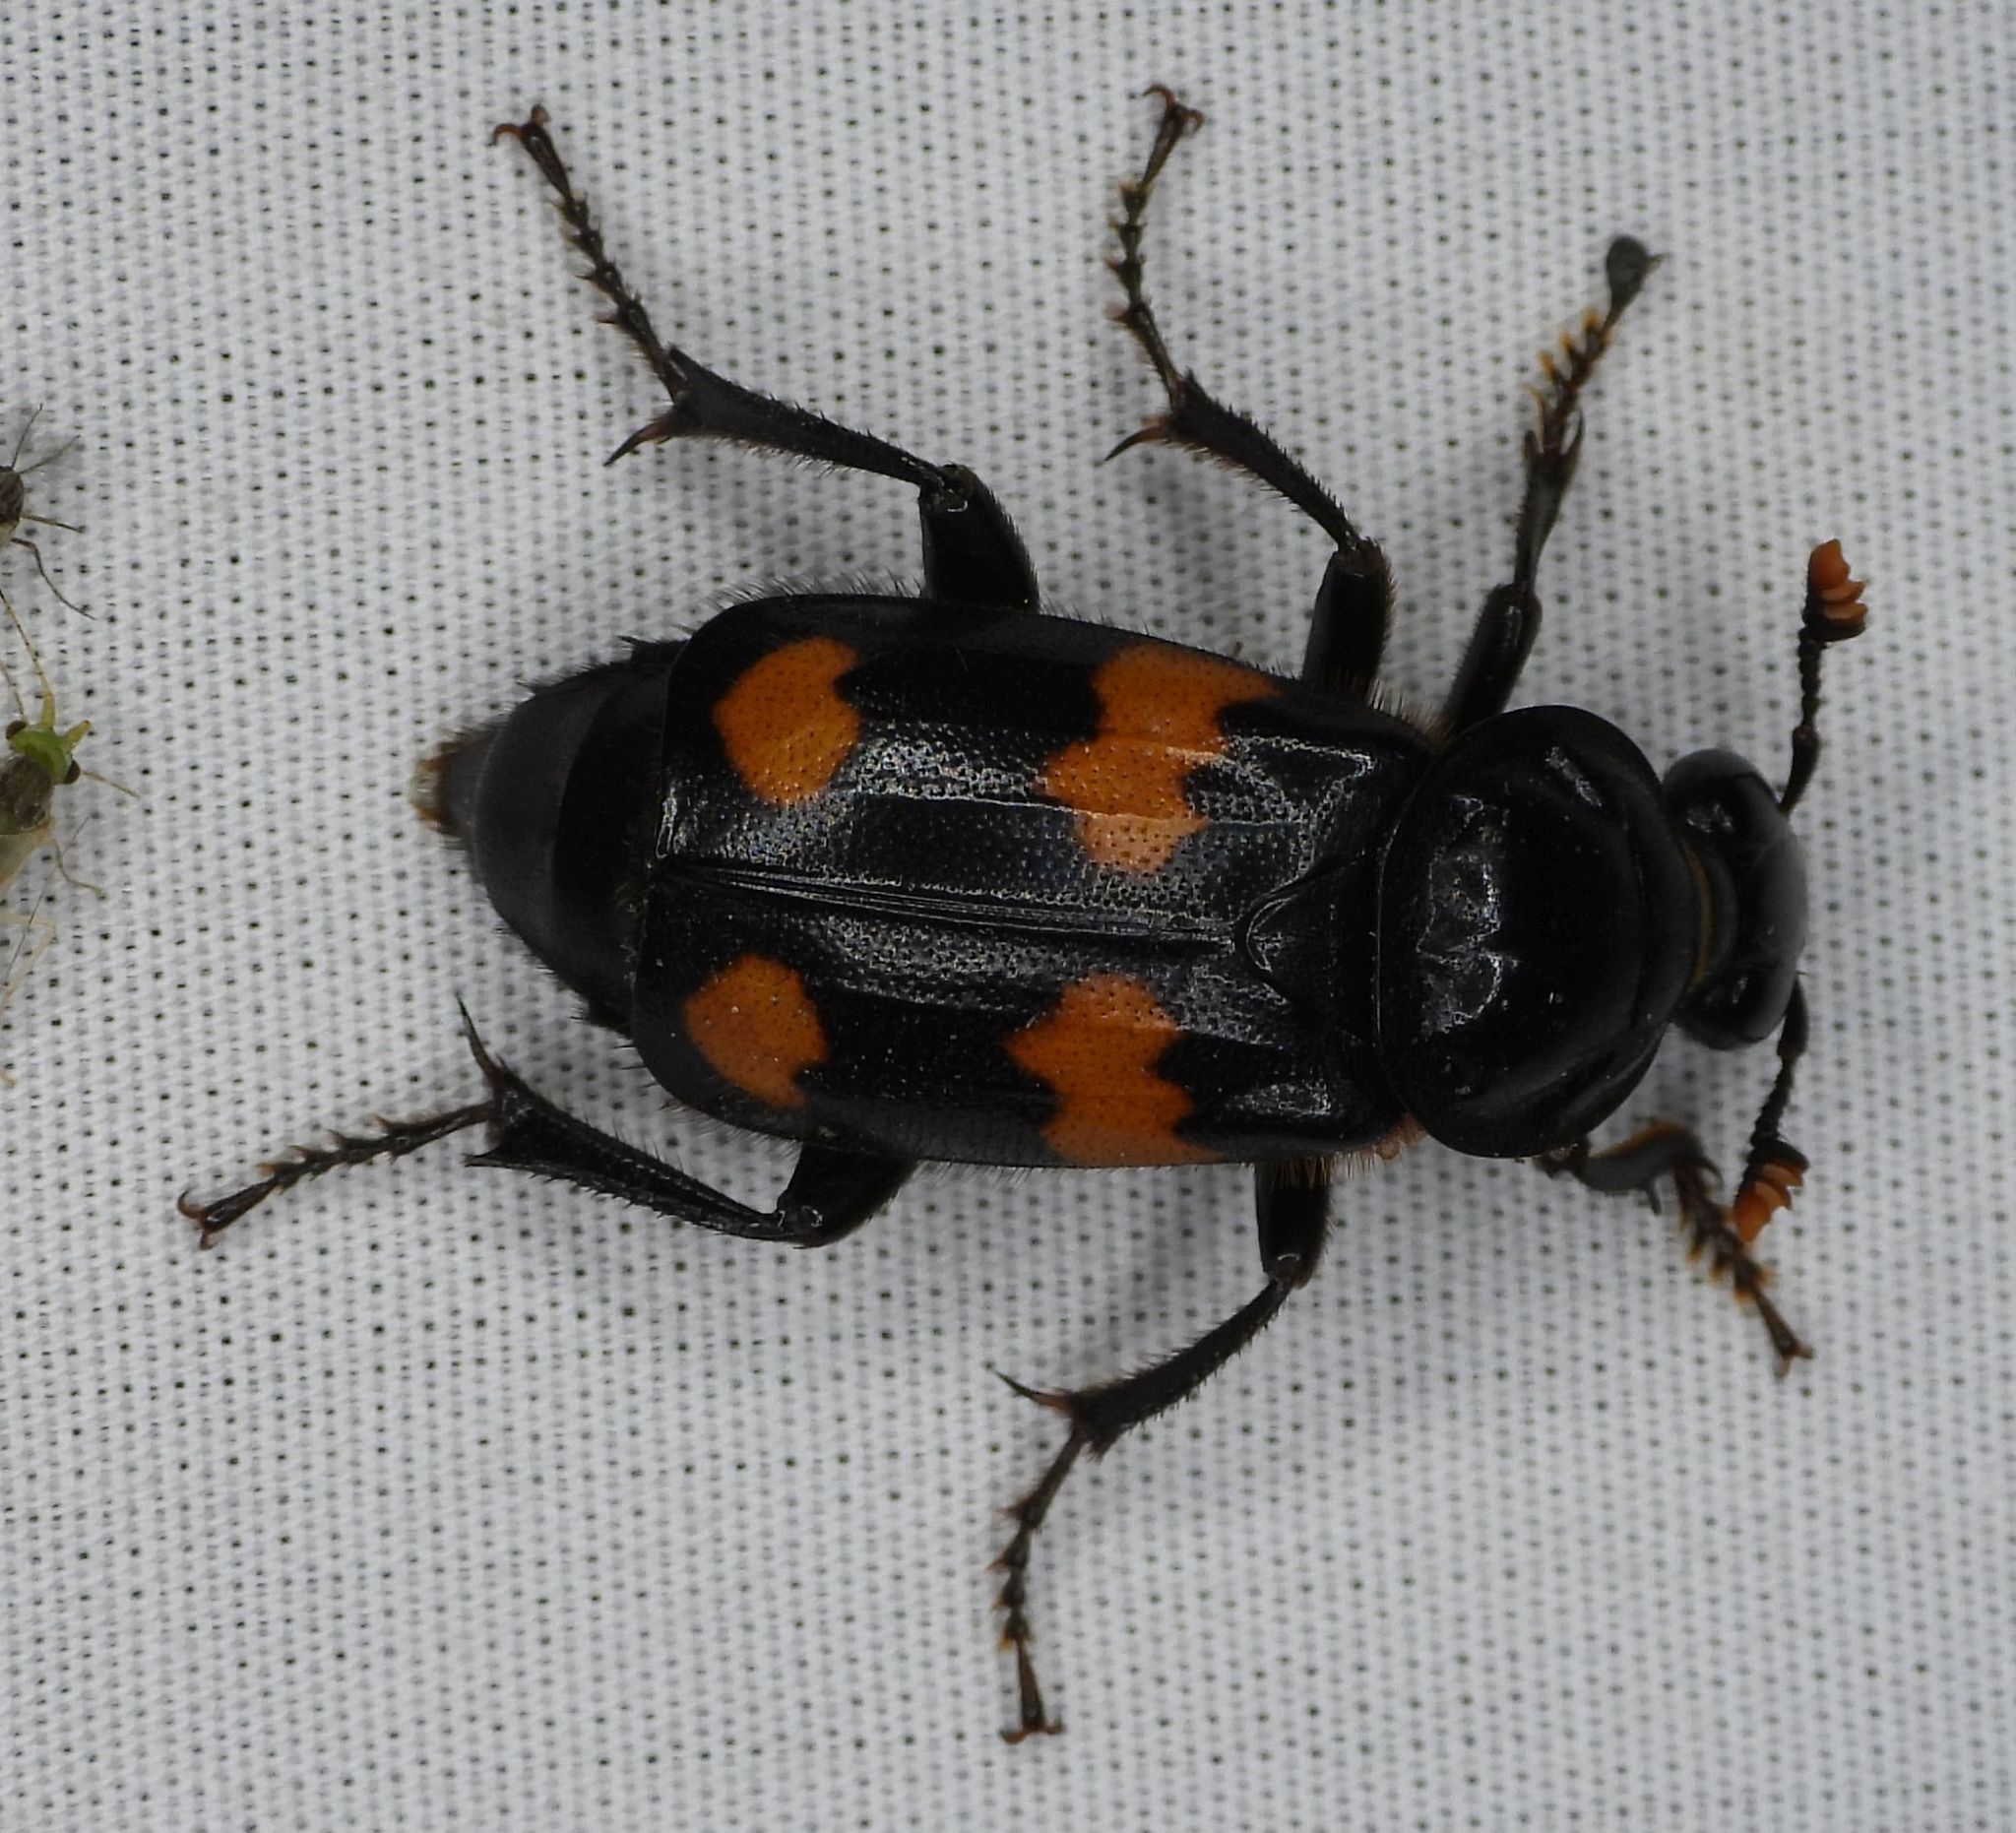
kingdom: Animalia
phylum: Arthropoda
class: Insecta
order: Coleoptera
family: Staphylinidae
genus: Nicrophorus
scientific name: Nicrophorus orbicollis
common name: Roundneck sexton beetle
